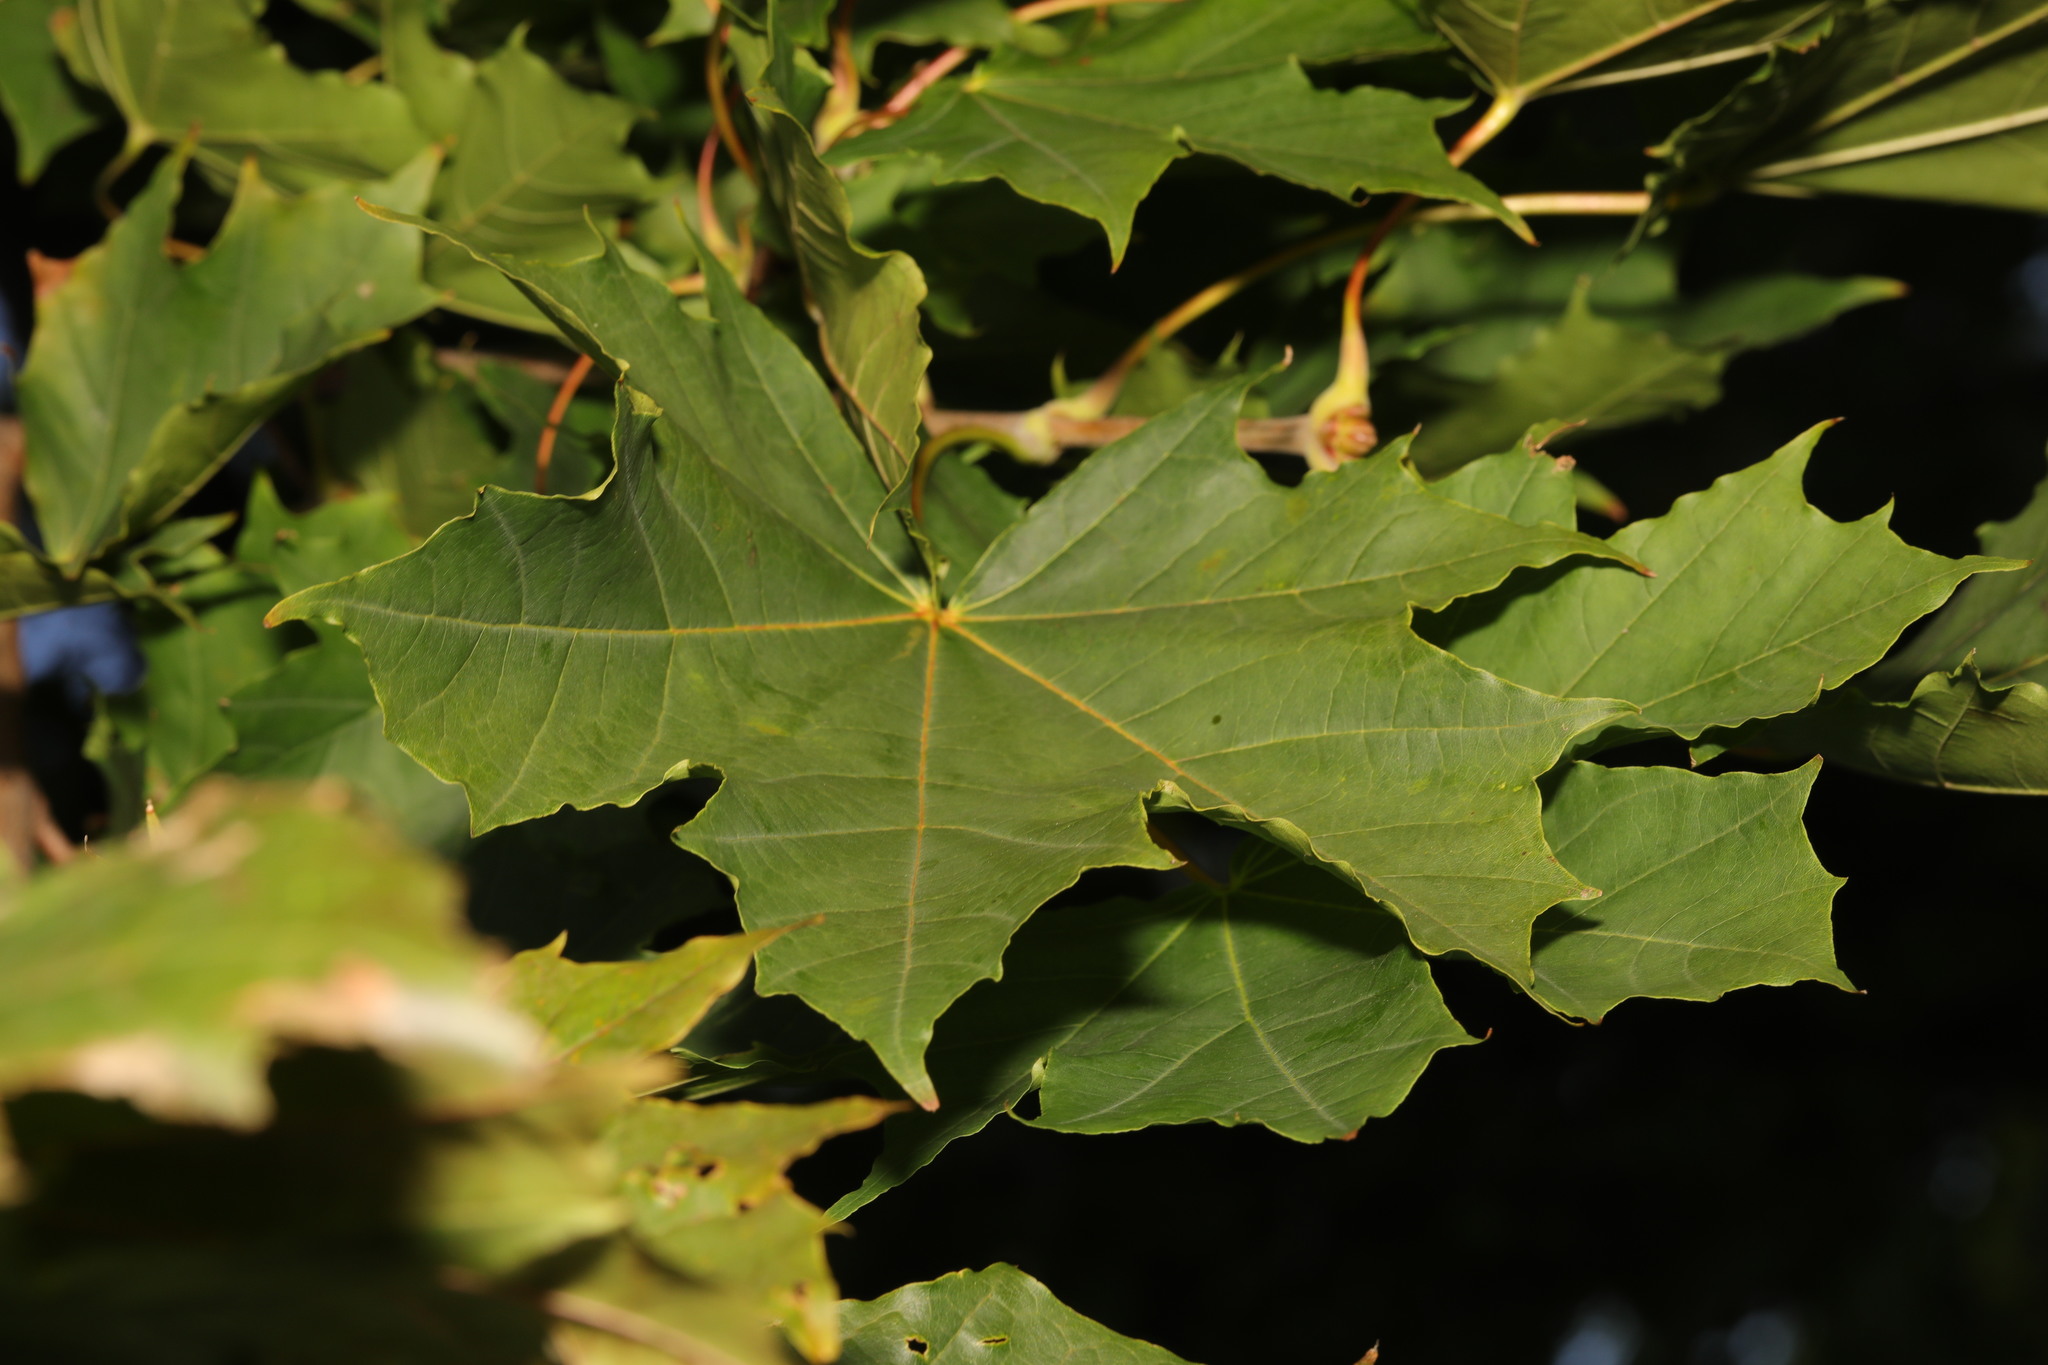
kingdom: Plantae
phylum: Tracheophyta
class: Magnoliopsida
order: Sapindales
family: Sapindaceae
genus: Acer
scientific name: Acer platanoides
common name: Norway maple
